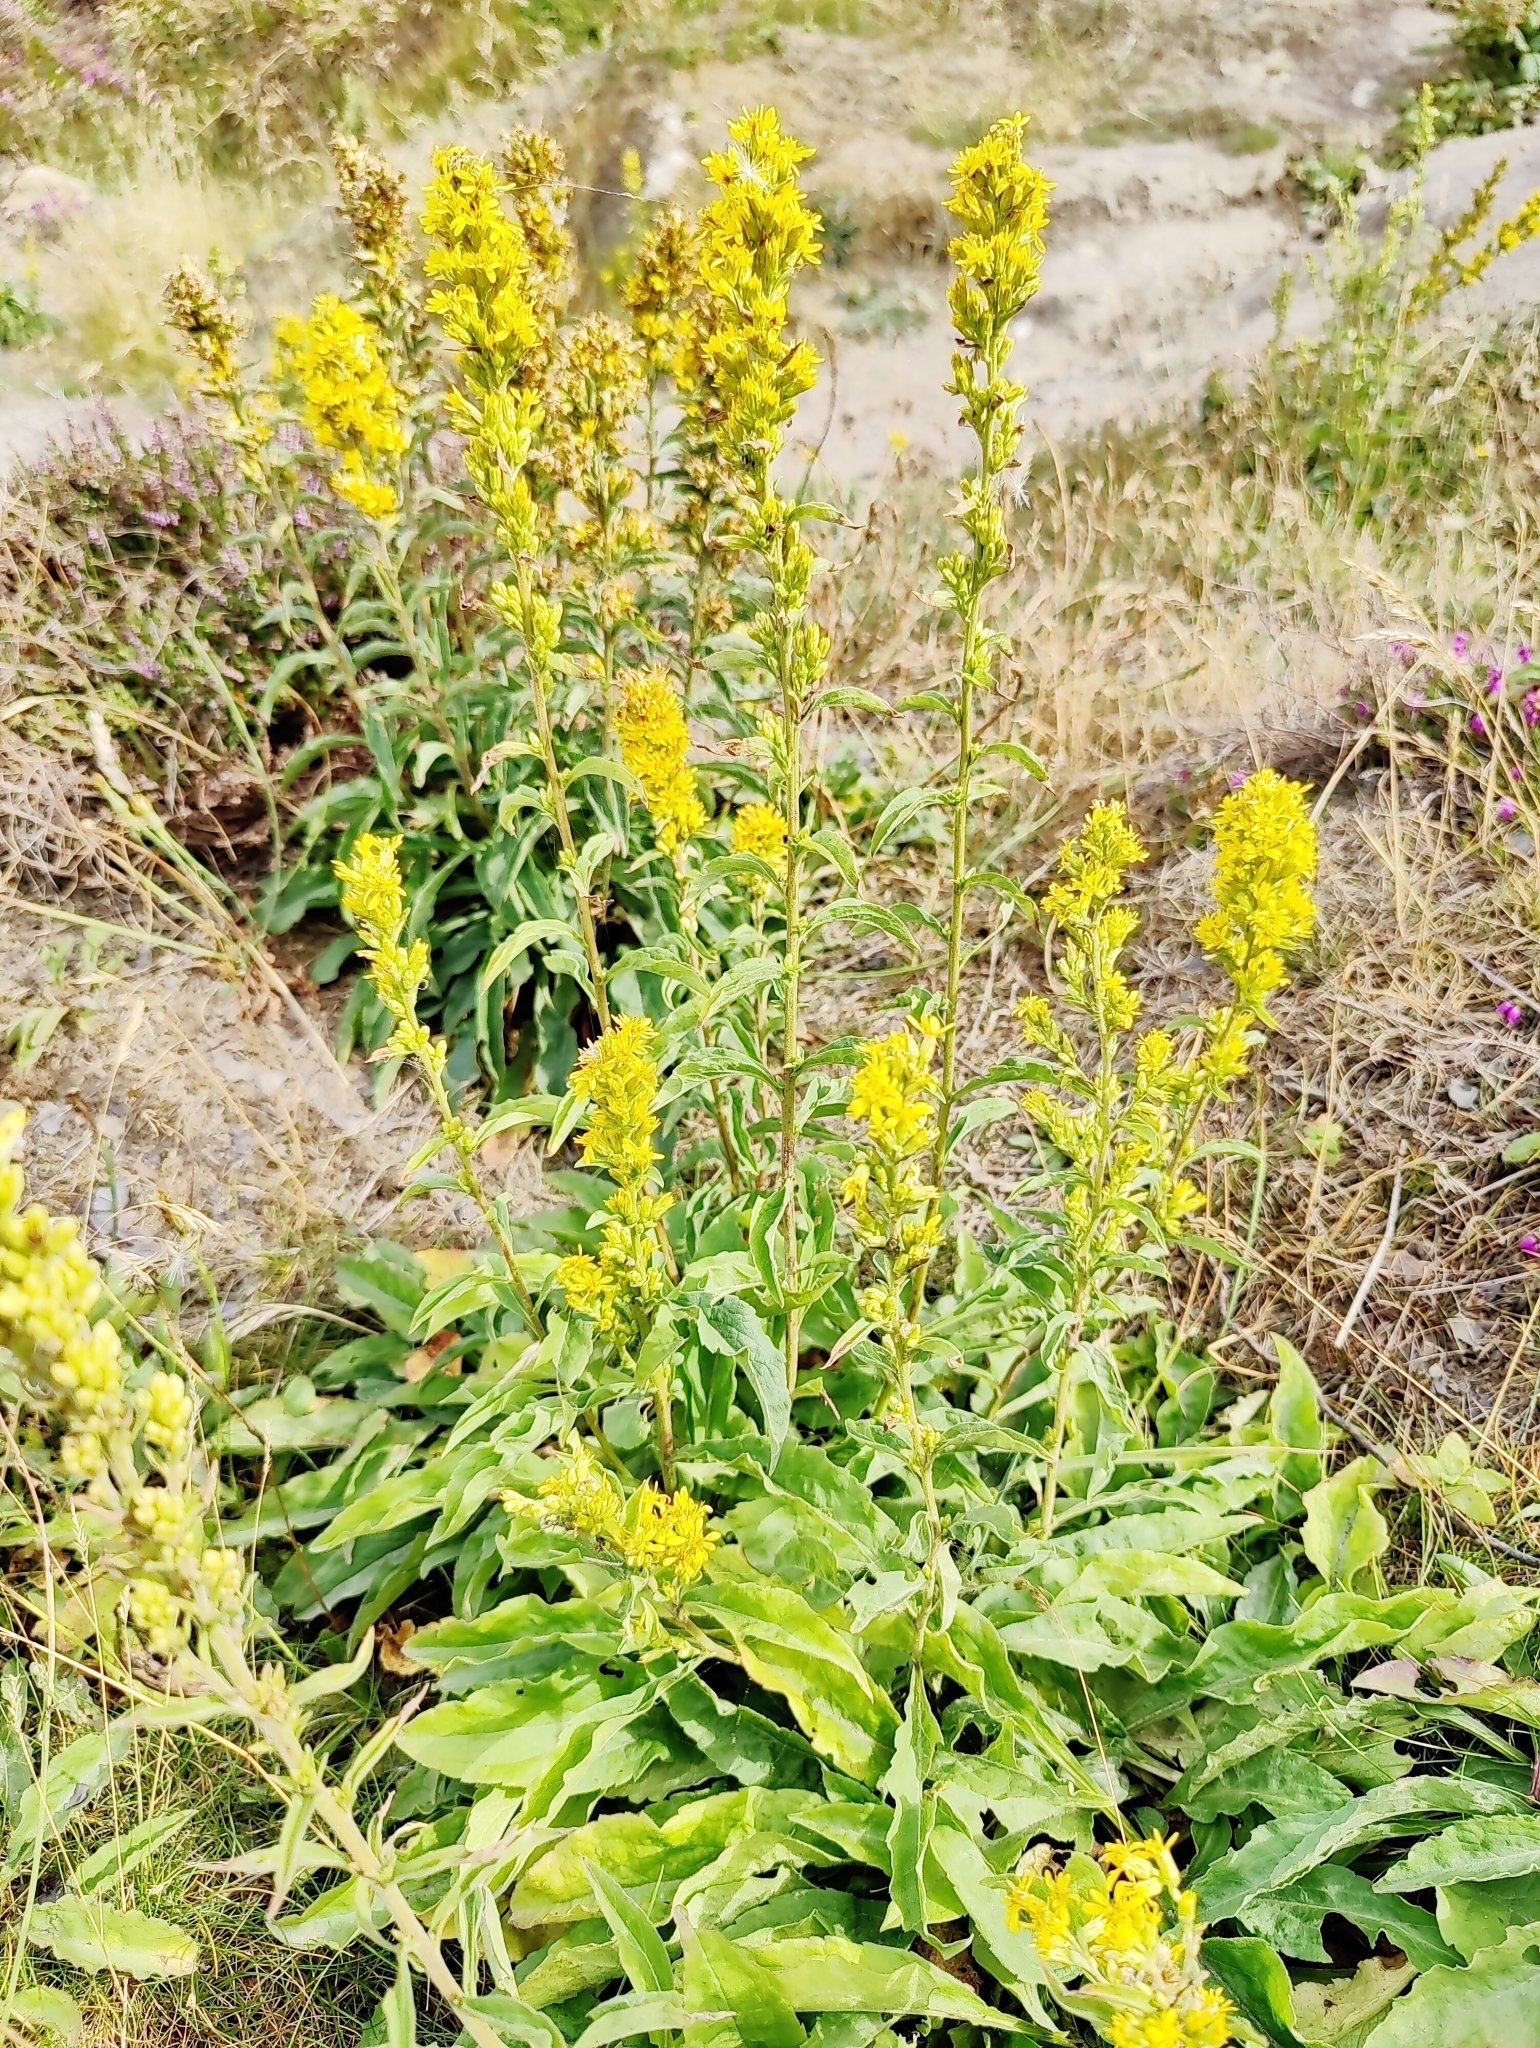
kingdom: Plantae
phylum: Tracheophyta
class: Magnoliopsida
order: Asterales
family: Asteraceae
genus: Solidago
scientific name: Solidago virgaurea
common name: Goldenrod
